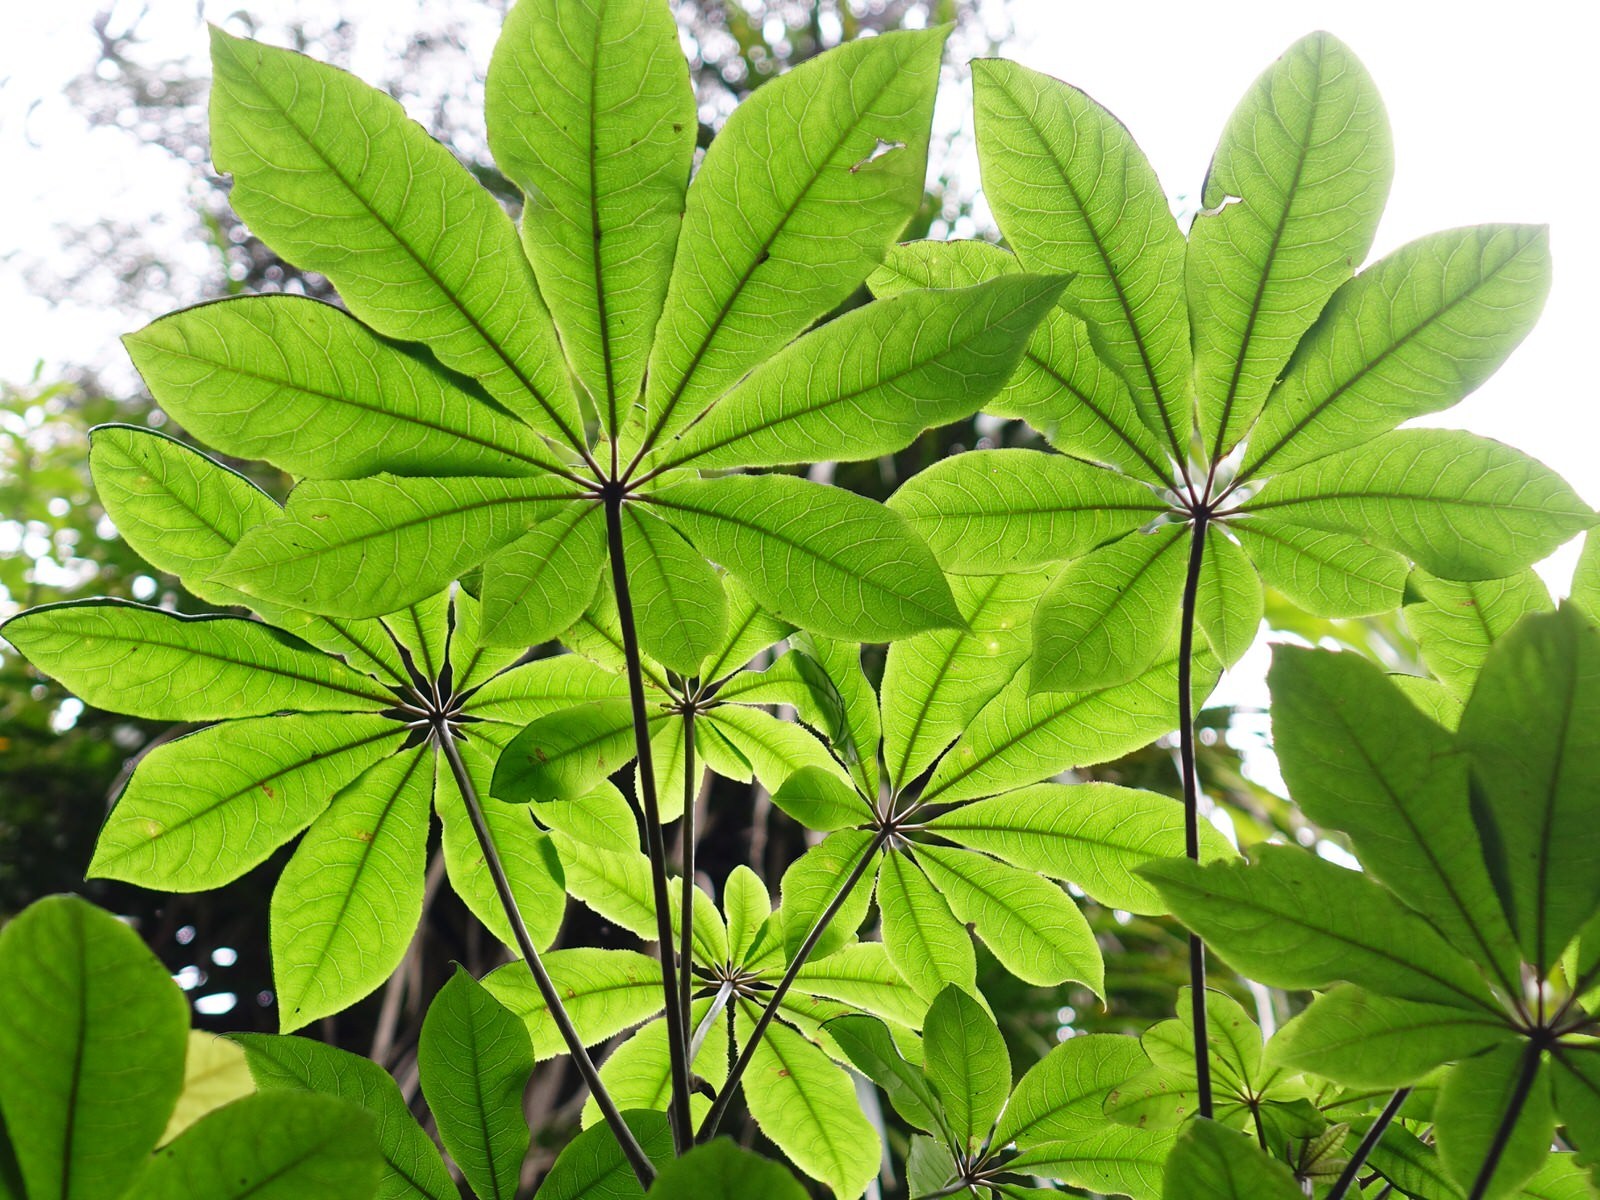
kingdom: Plantae
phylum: Tracheophyta
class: Magnoliopsida
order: Apiales
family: Araliaceae
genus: Schefflera
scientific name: Schefflera digitata
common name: Pate
